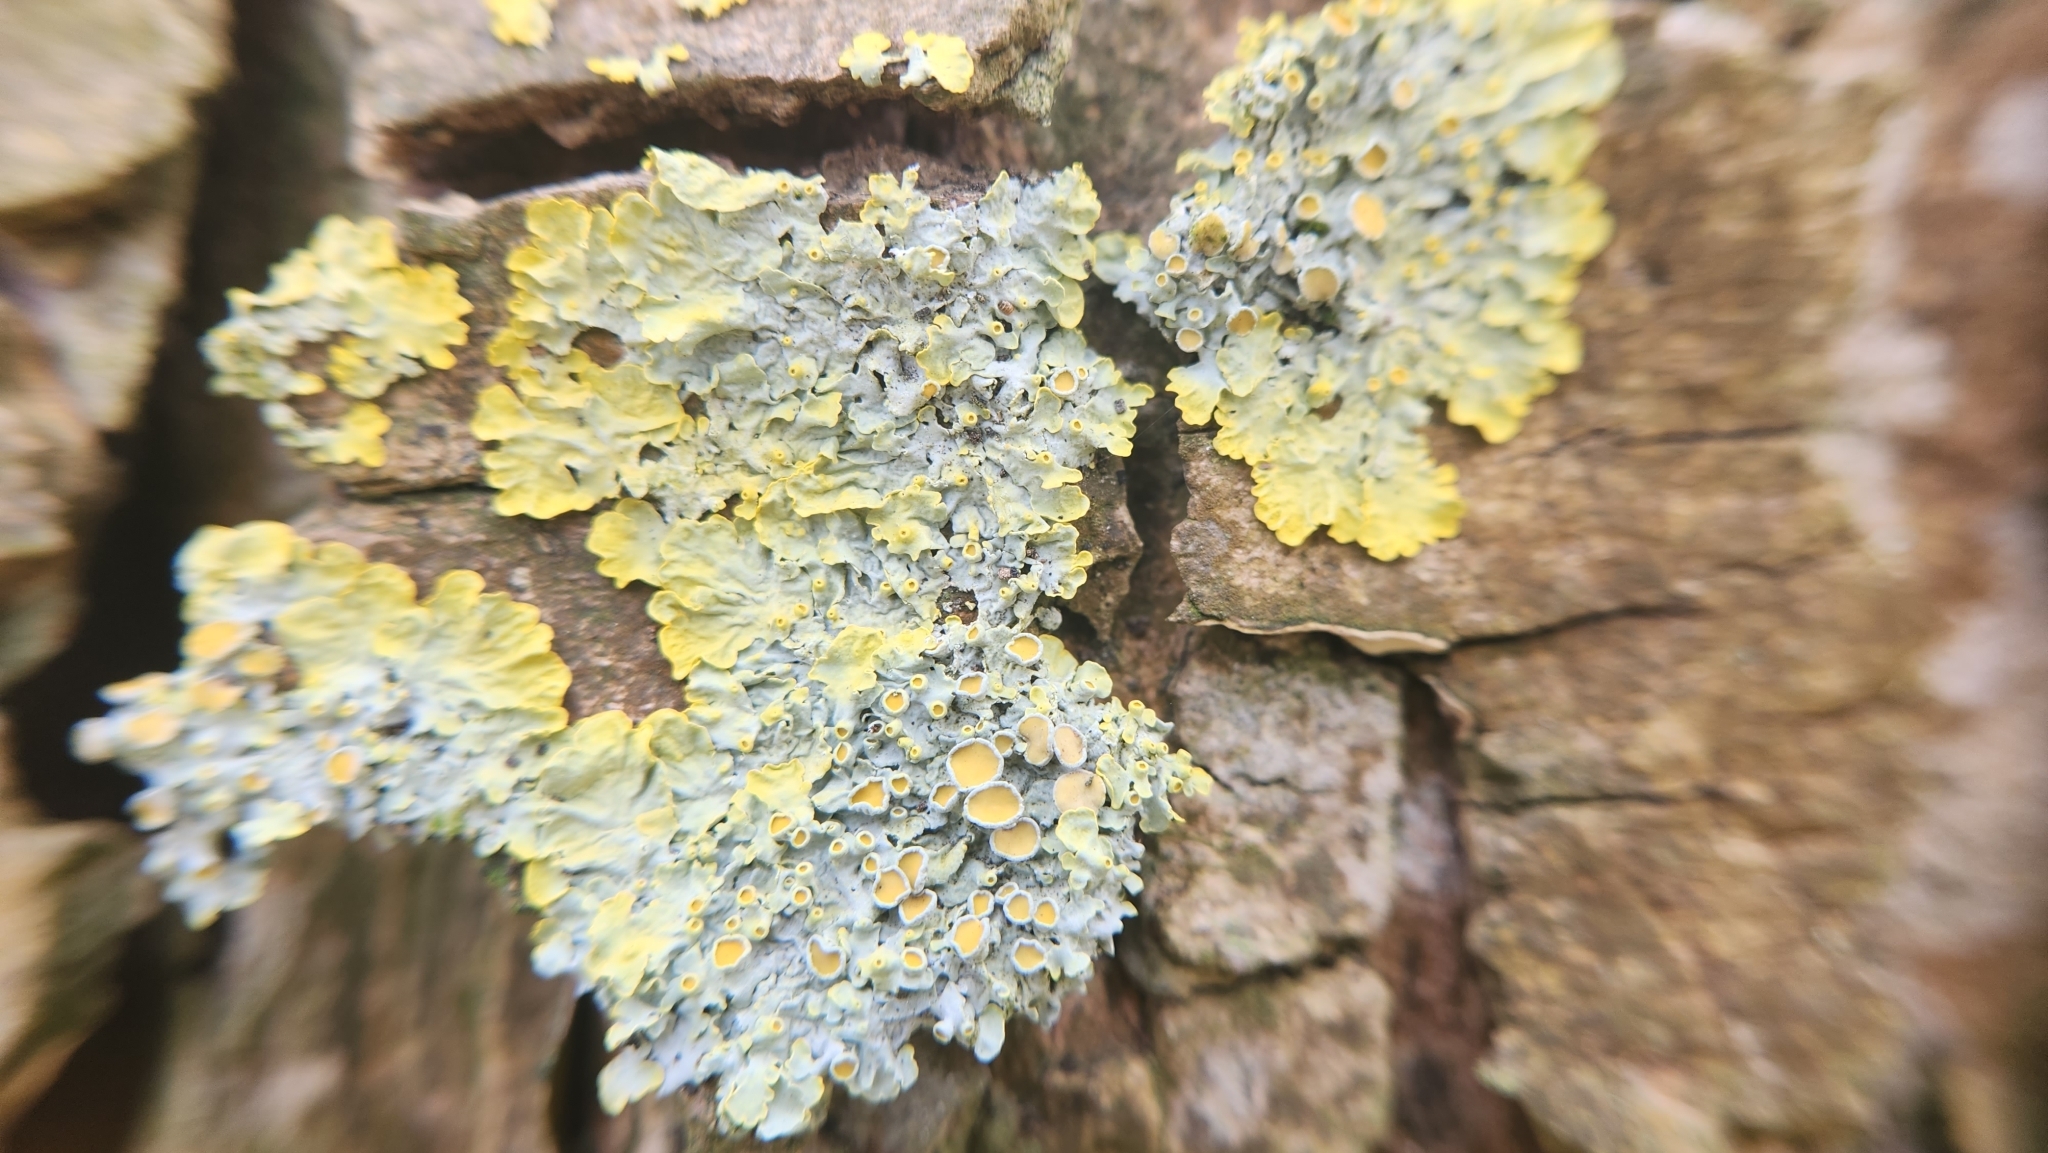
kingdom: Fungi
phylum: Ascomycota
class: Lecanoromycetes
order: Teloschistales
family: Teloschistaceae
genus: Xanthoria
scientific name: Xanthoria parietina
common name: Common orange lichen
